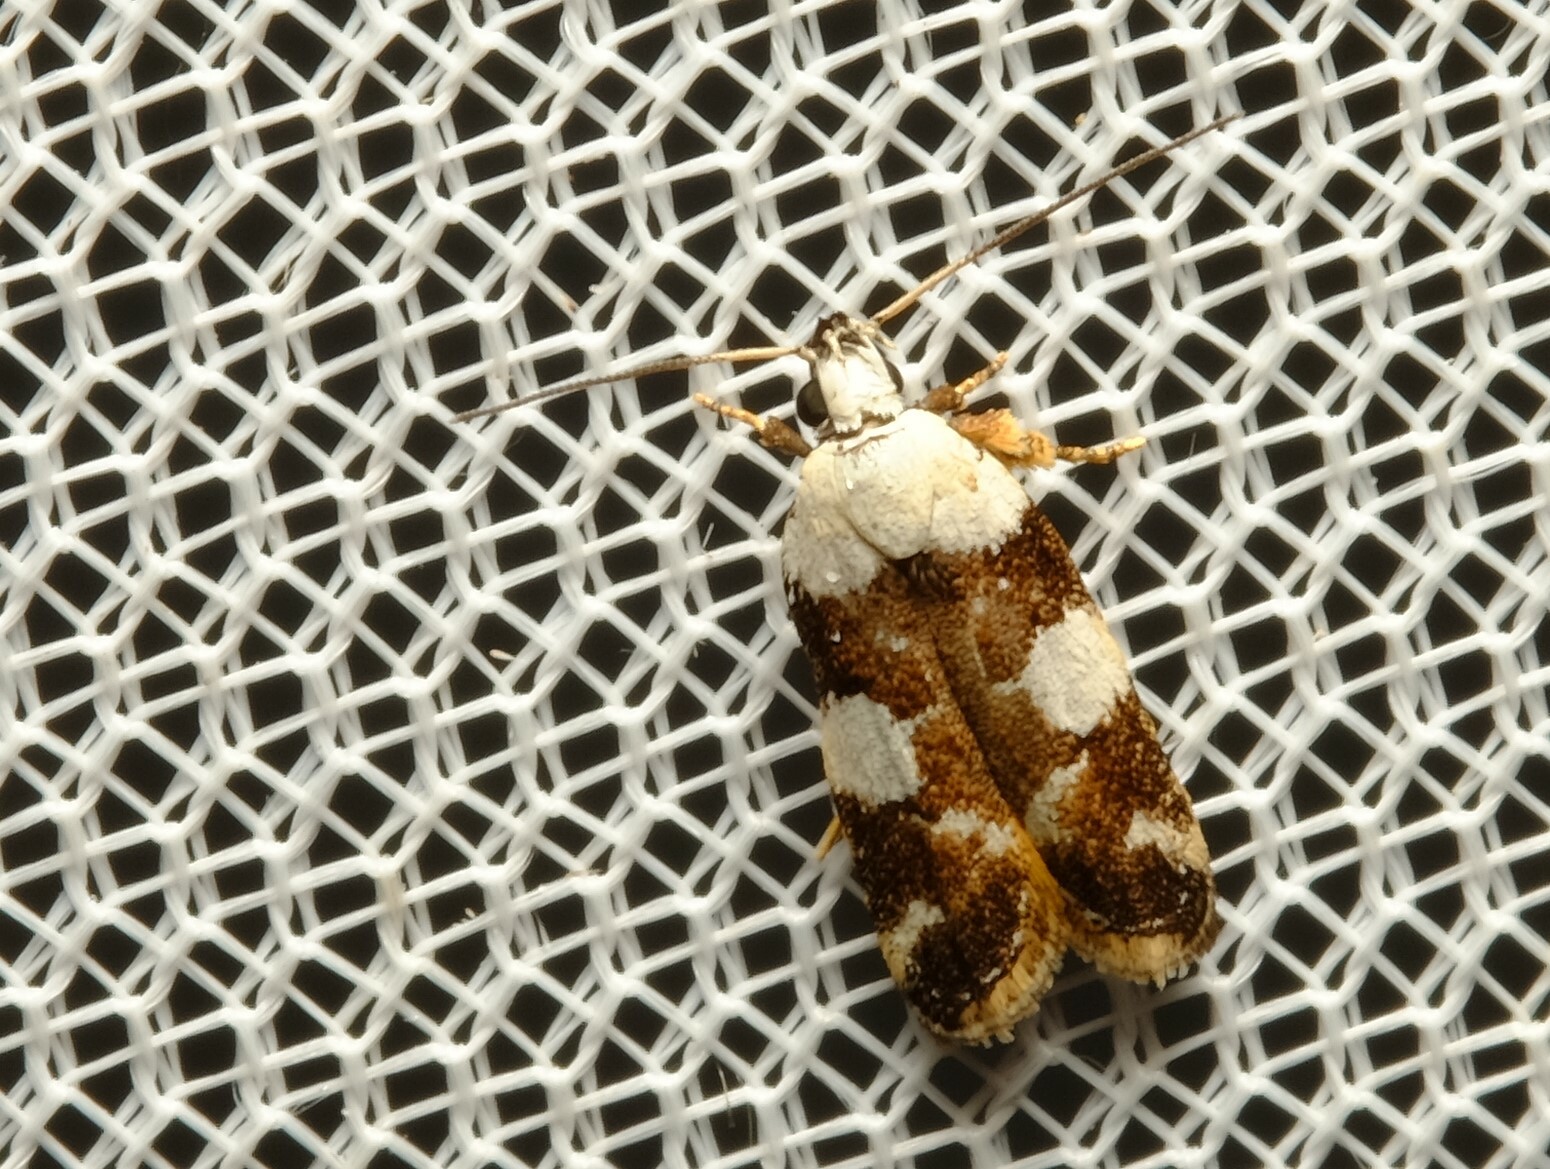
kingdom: Animalia
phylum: Arthropoda
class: Insecta
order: Lepidoptera
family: Gelechiidae
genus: Ardozyga
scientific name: Ardozyga abruptella
